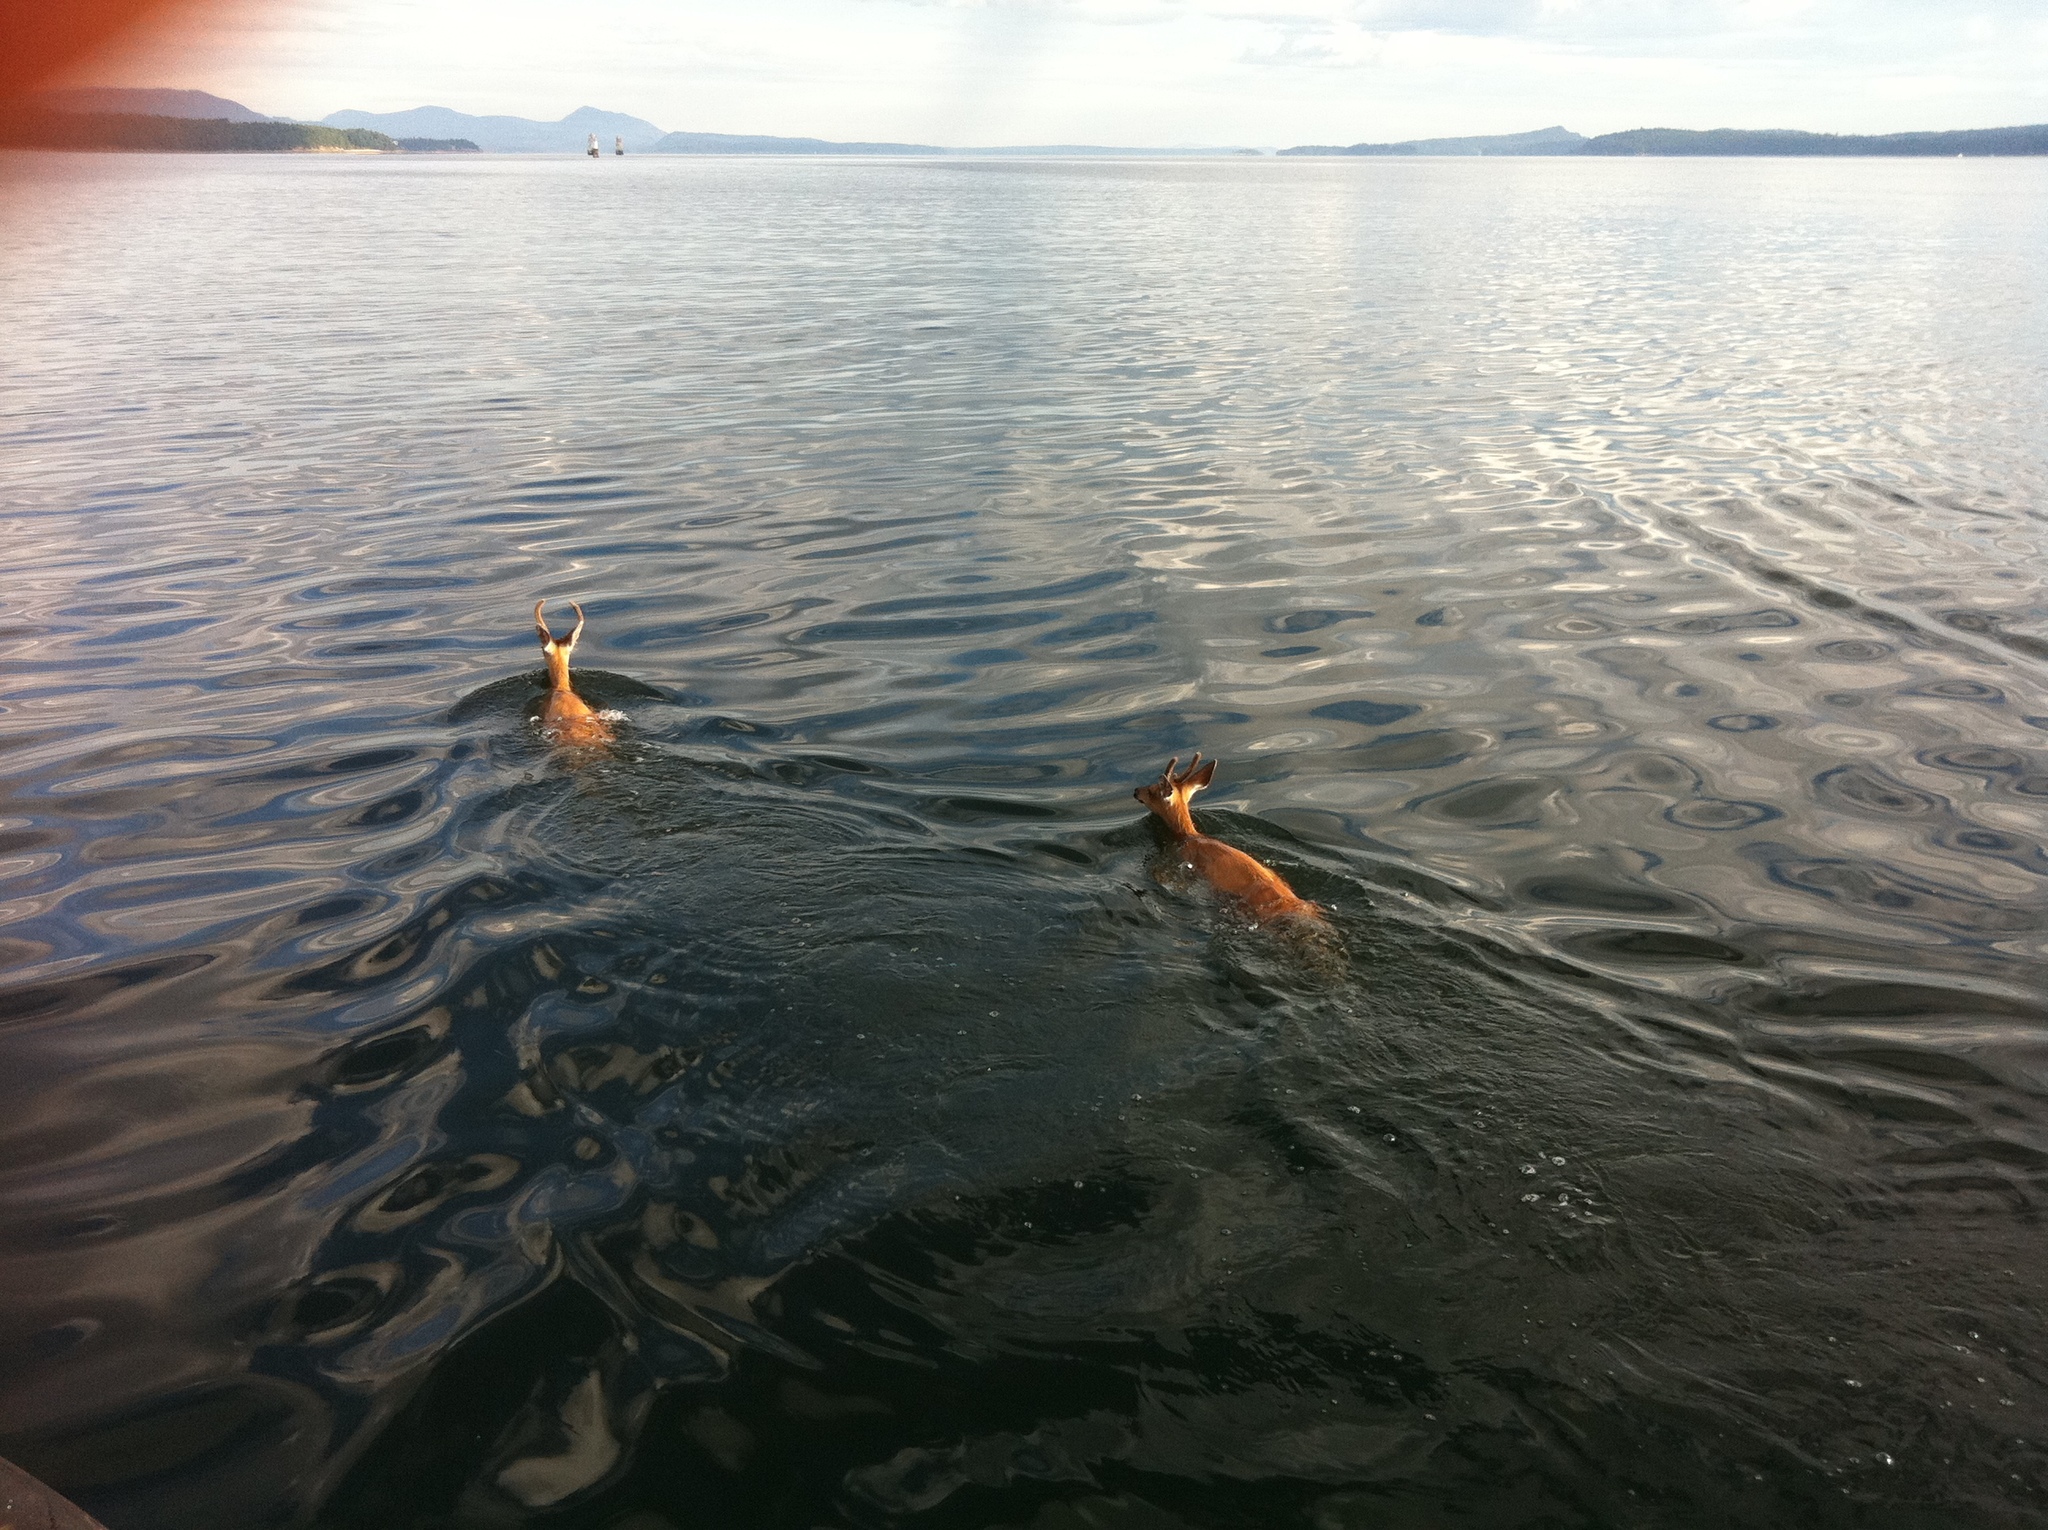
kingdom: Animalia
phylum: Chordata
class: Mammalia
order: Artiodactyla
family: Cervidae
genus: Odocoileus
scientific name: Odocoileus hemionus
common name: Mule deer
